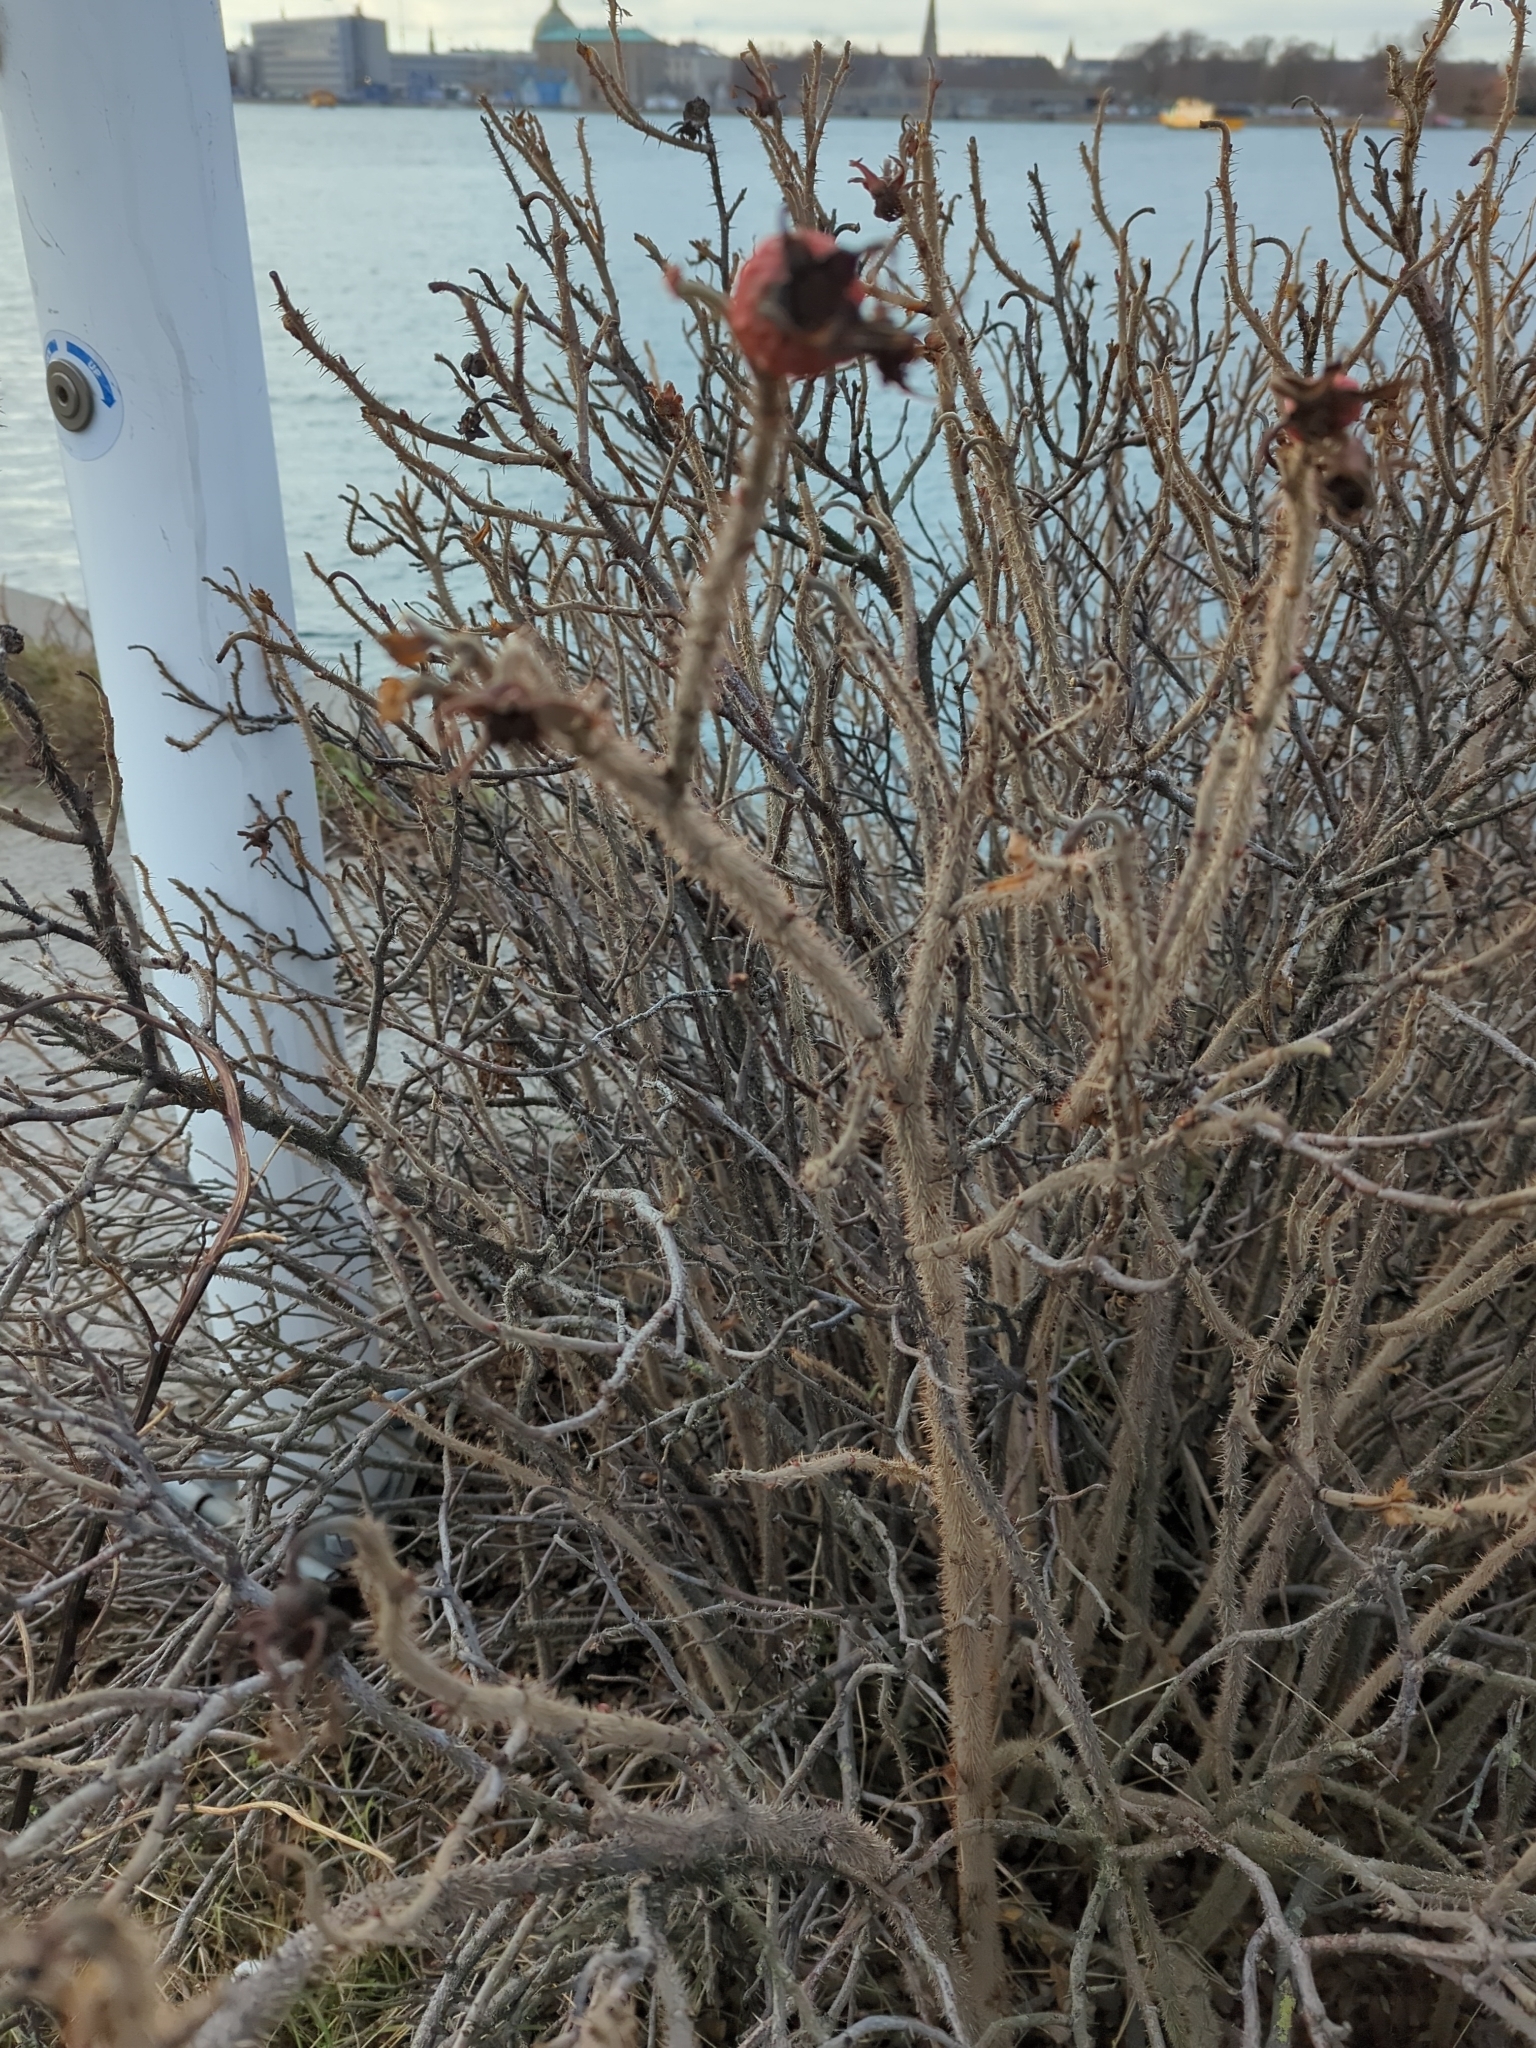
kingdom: Plantae
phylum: Tracheophyta
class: Magnoliopsida
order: Rosales
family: Rosaceae
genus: Rosa
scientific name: Rosa rugosa
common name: Japanese rose
